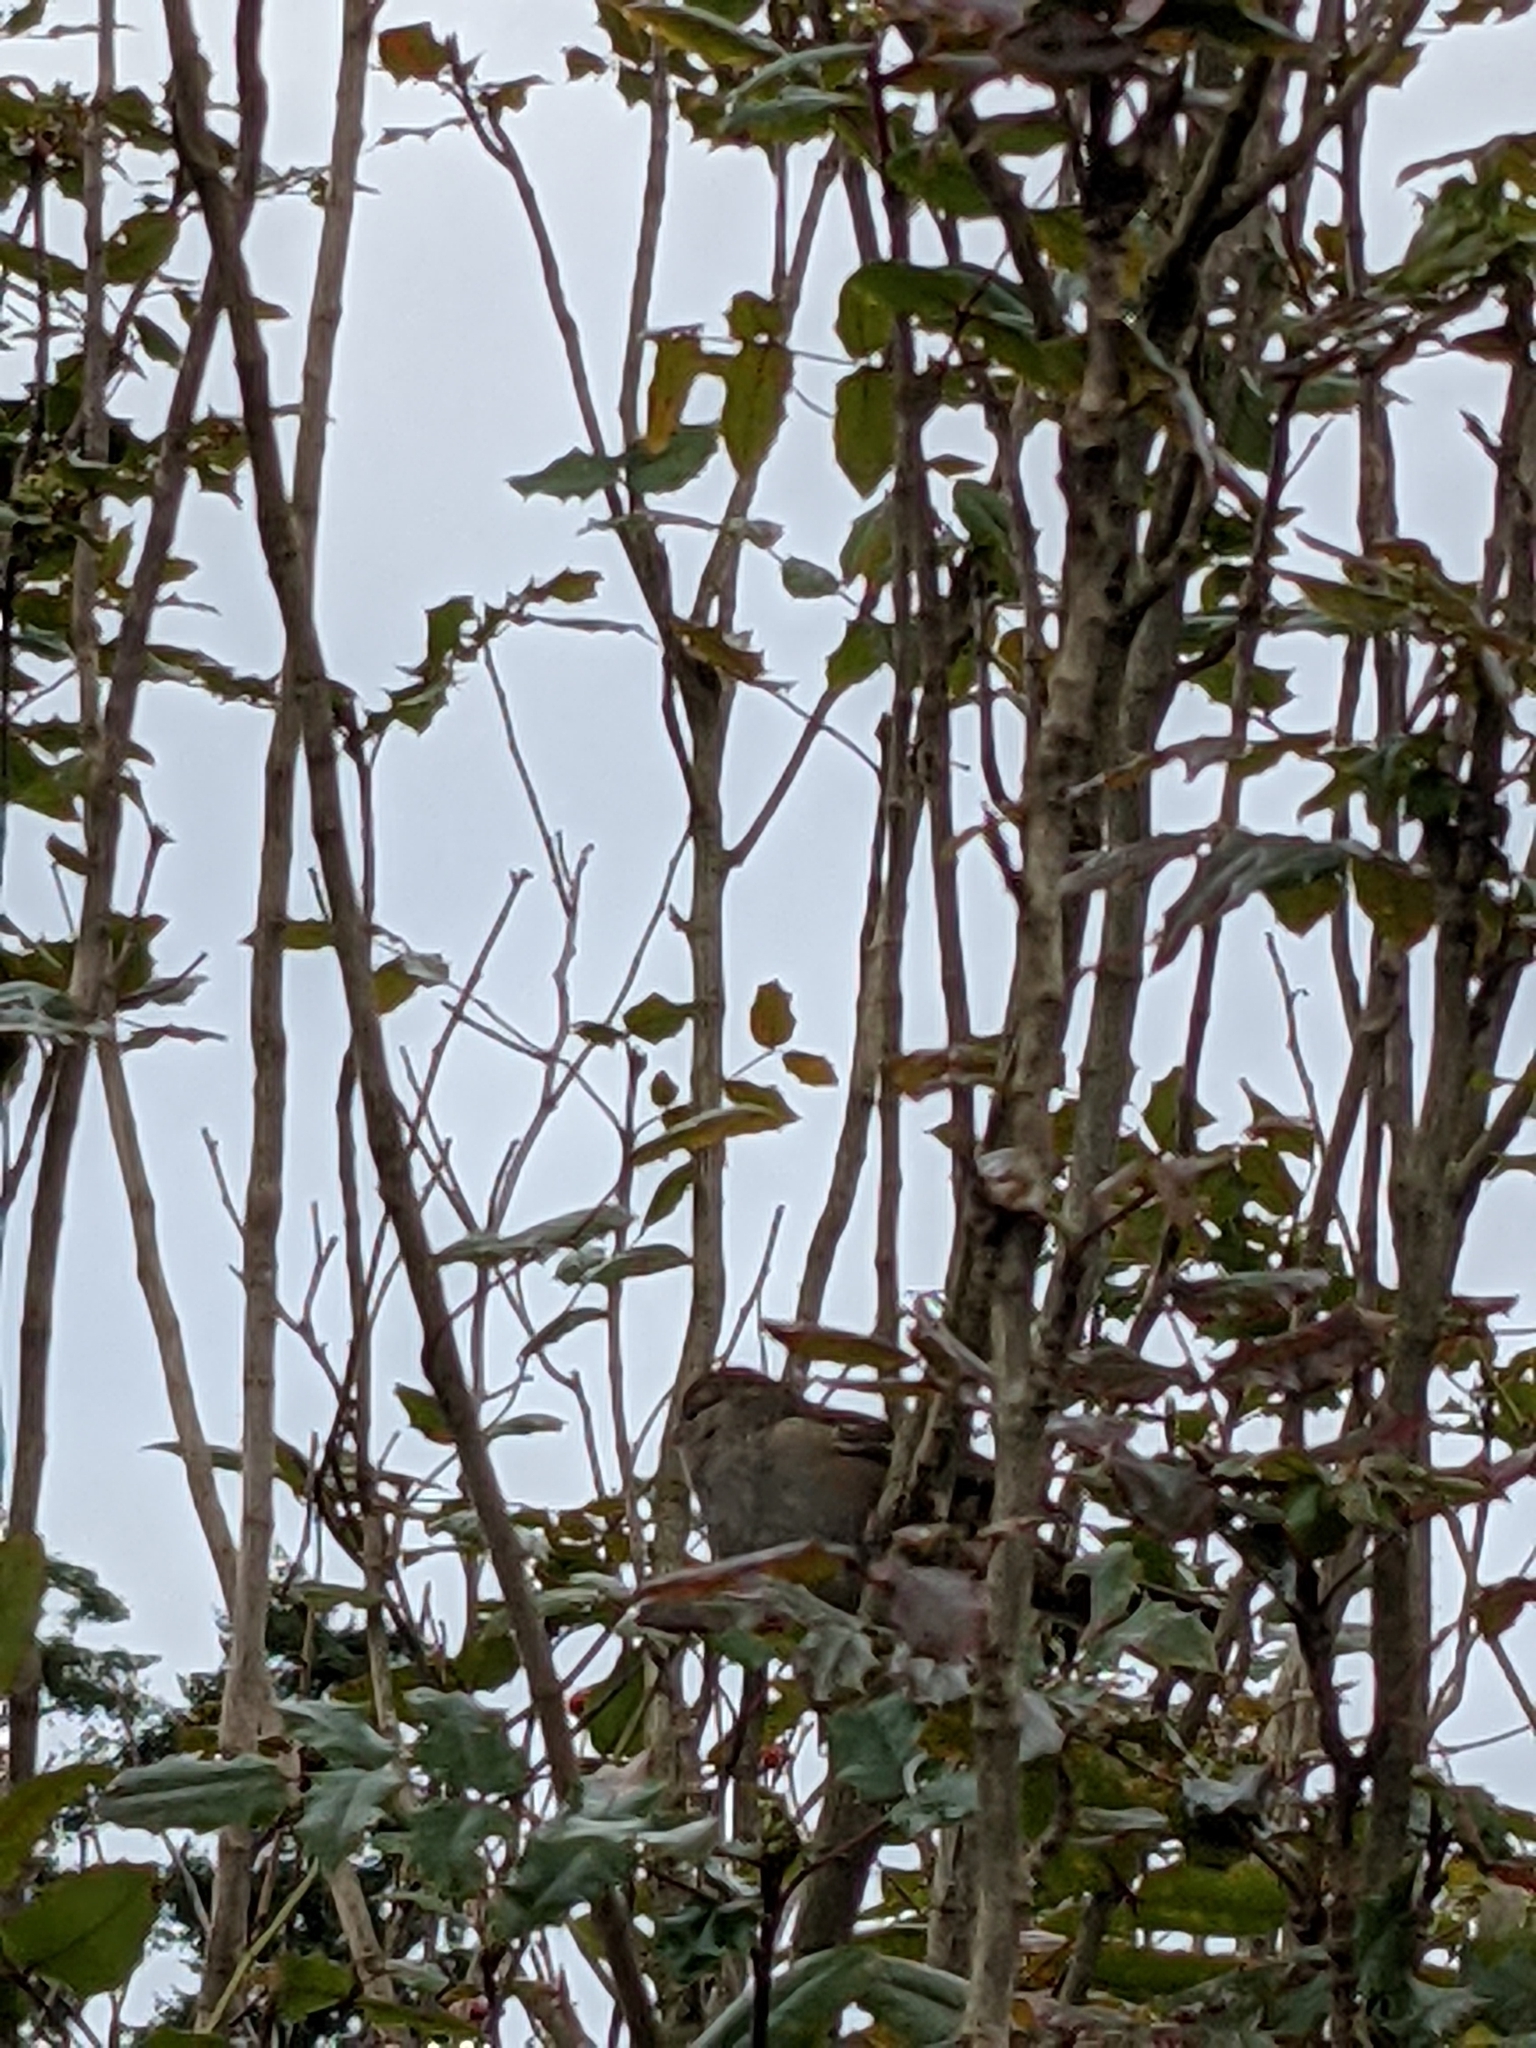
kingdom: Animalia
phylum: Chordata
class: Aves
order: Passeriformes
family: Passeridae
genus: Passer
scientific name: Passer domesticus
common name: House sparrow
